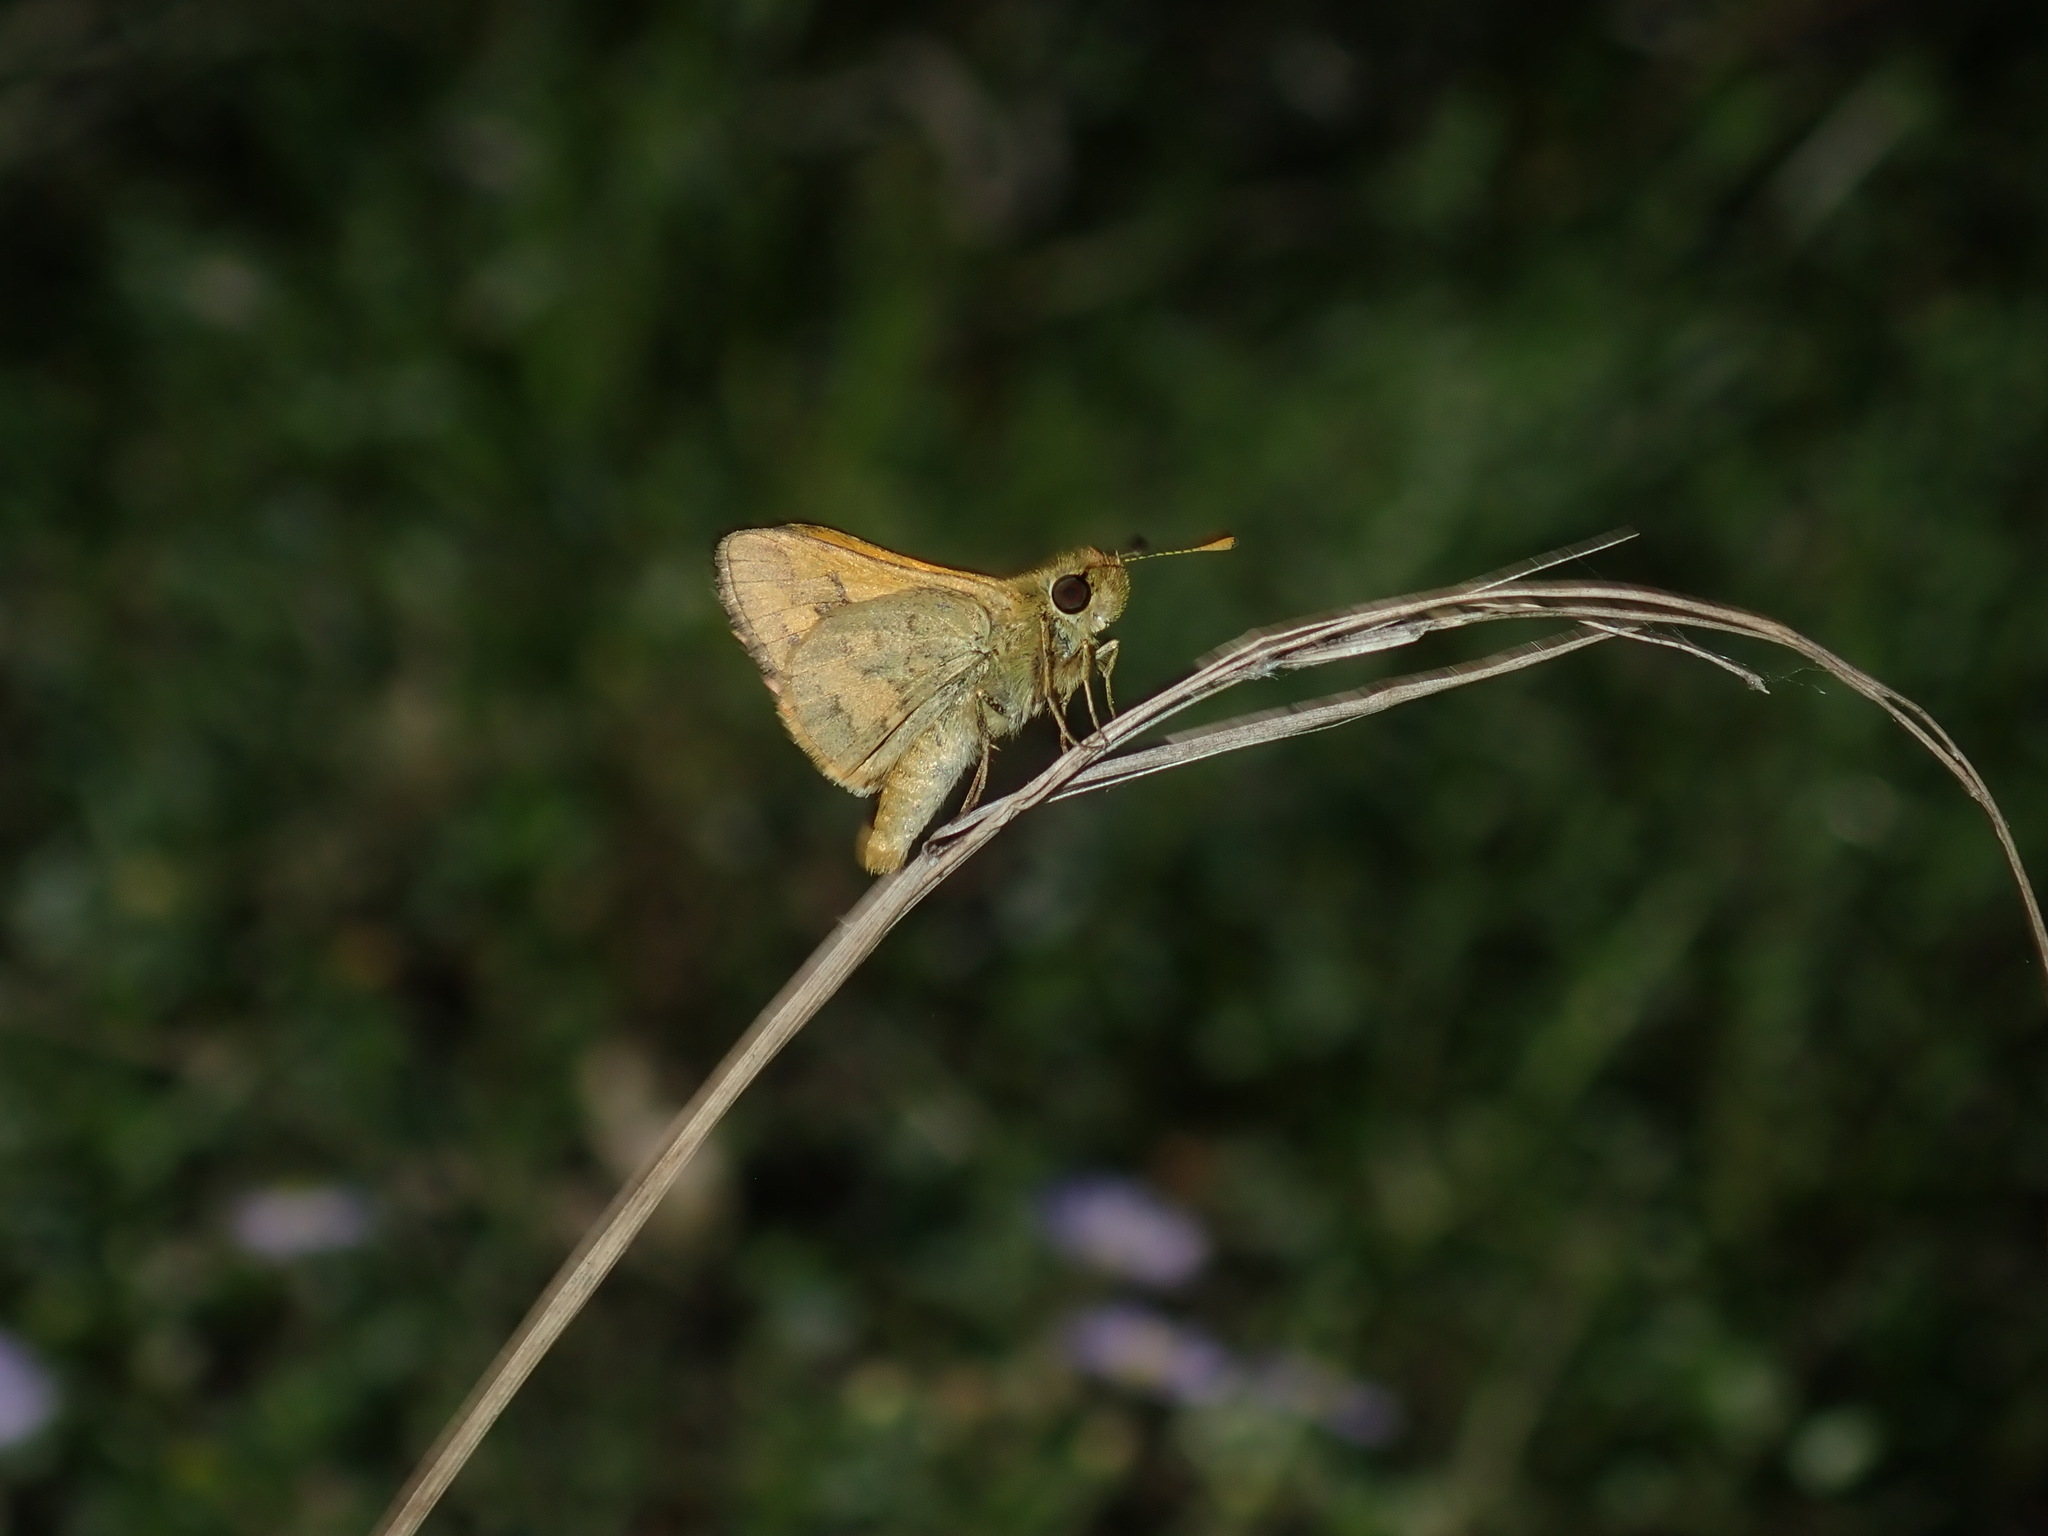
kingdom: Animalia
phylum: Arthropoda
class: Insecta
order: Lepidoptera
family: Hesperiidae
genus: Ocybadistes
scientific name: Ocybadistes walkeri
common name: Yellow-banded dart
